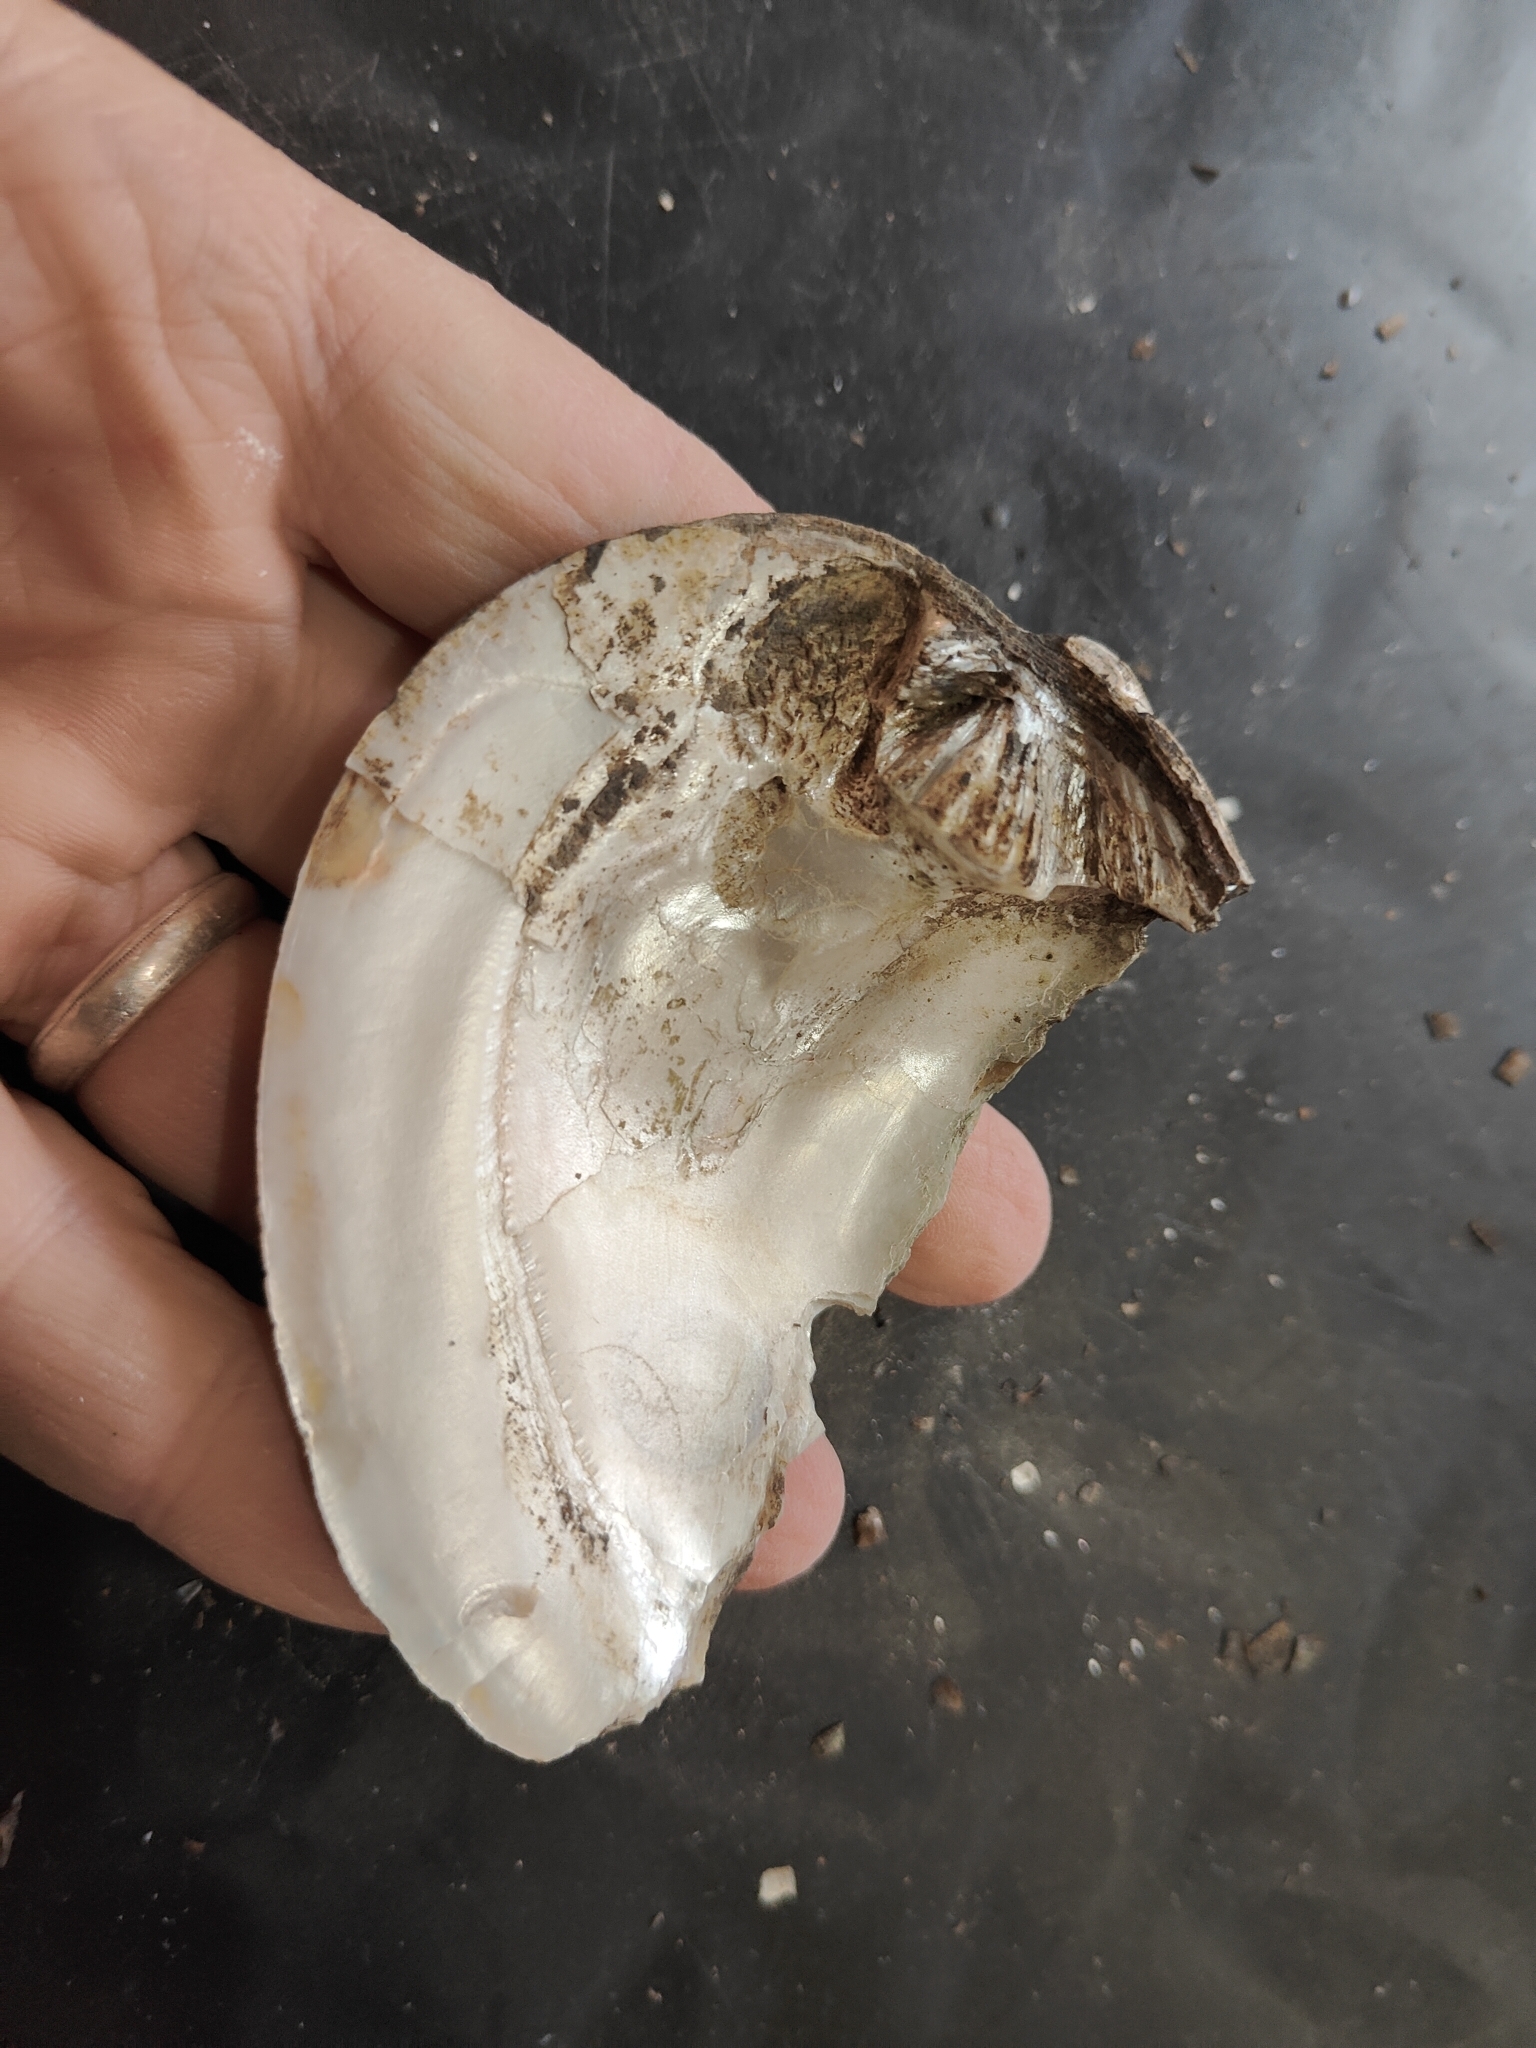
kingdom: Animalia
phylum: Mollusca
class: Bivalvia
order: Unionida
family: Unionidae
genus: Amblema
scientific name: Amblema plicata
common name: Threeridge
